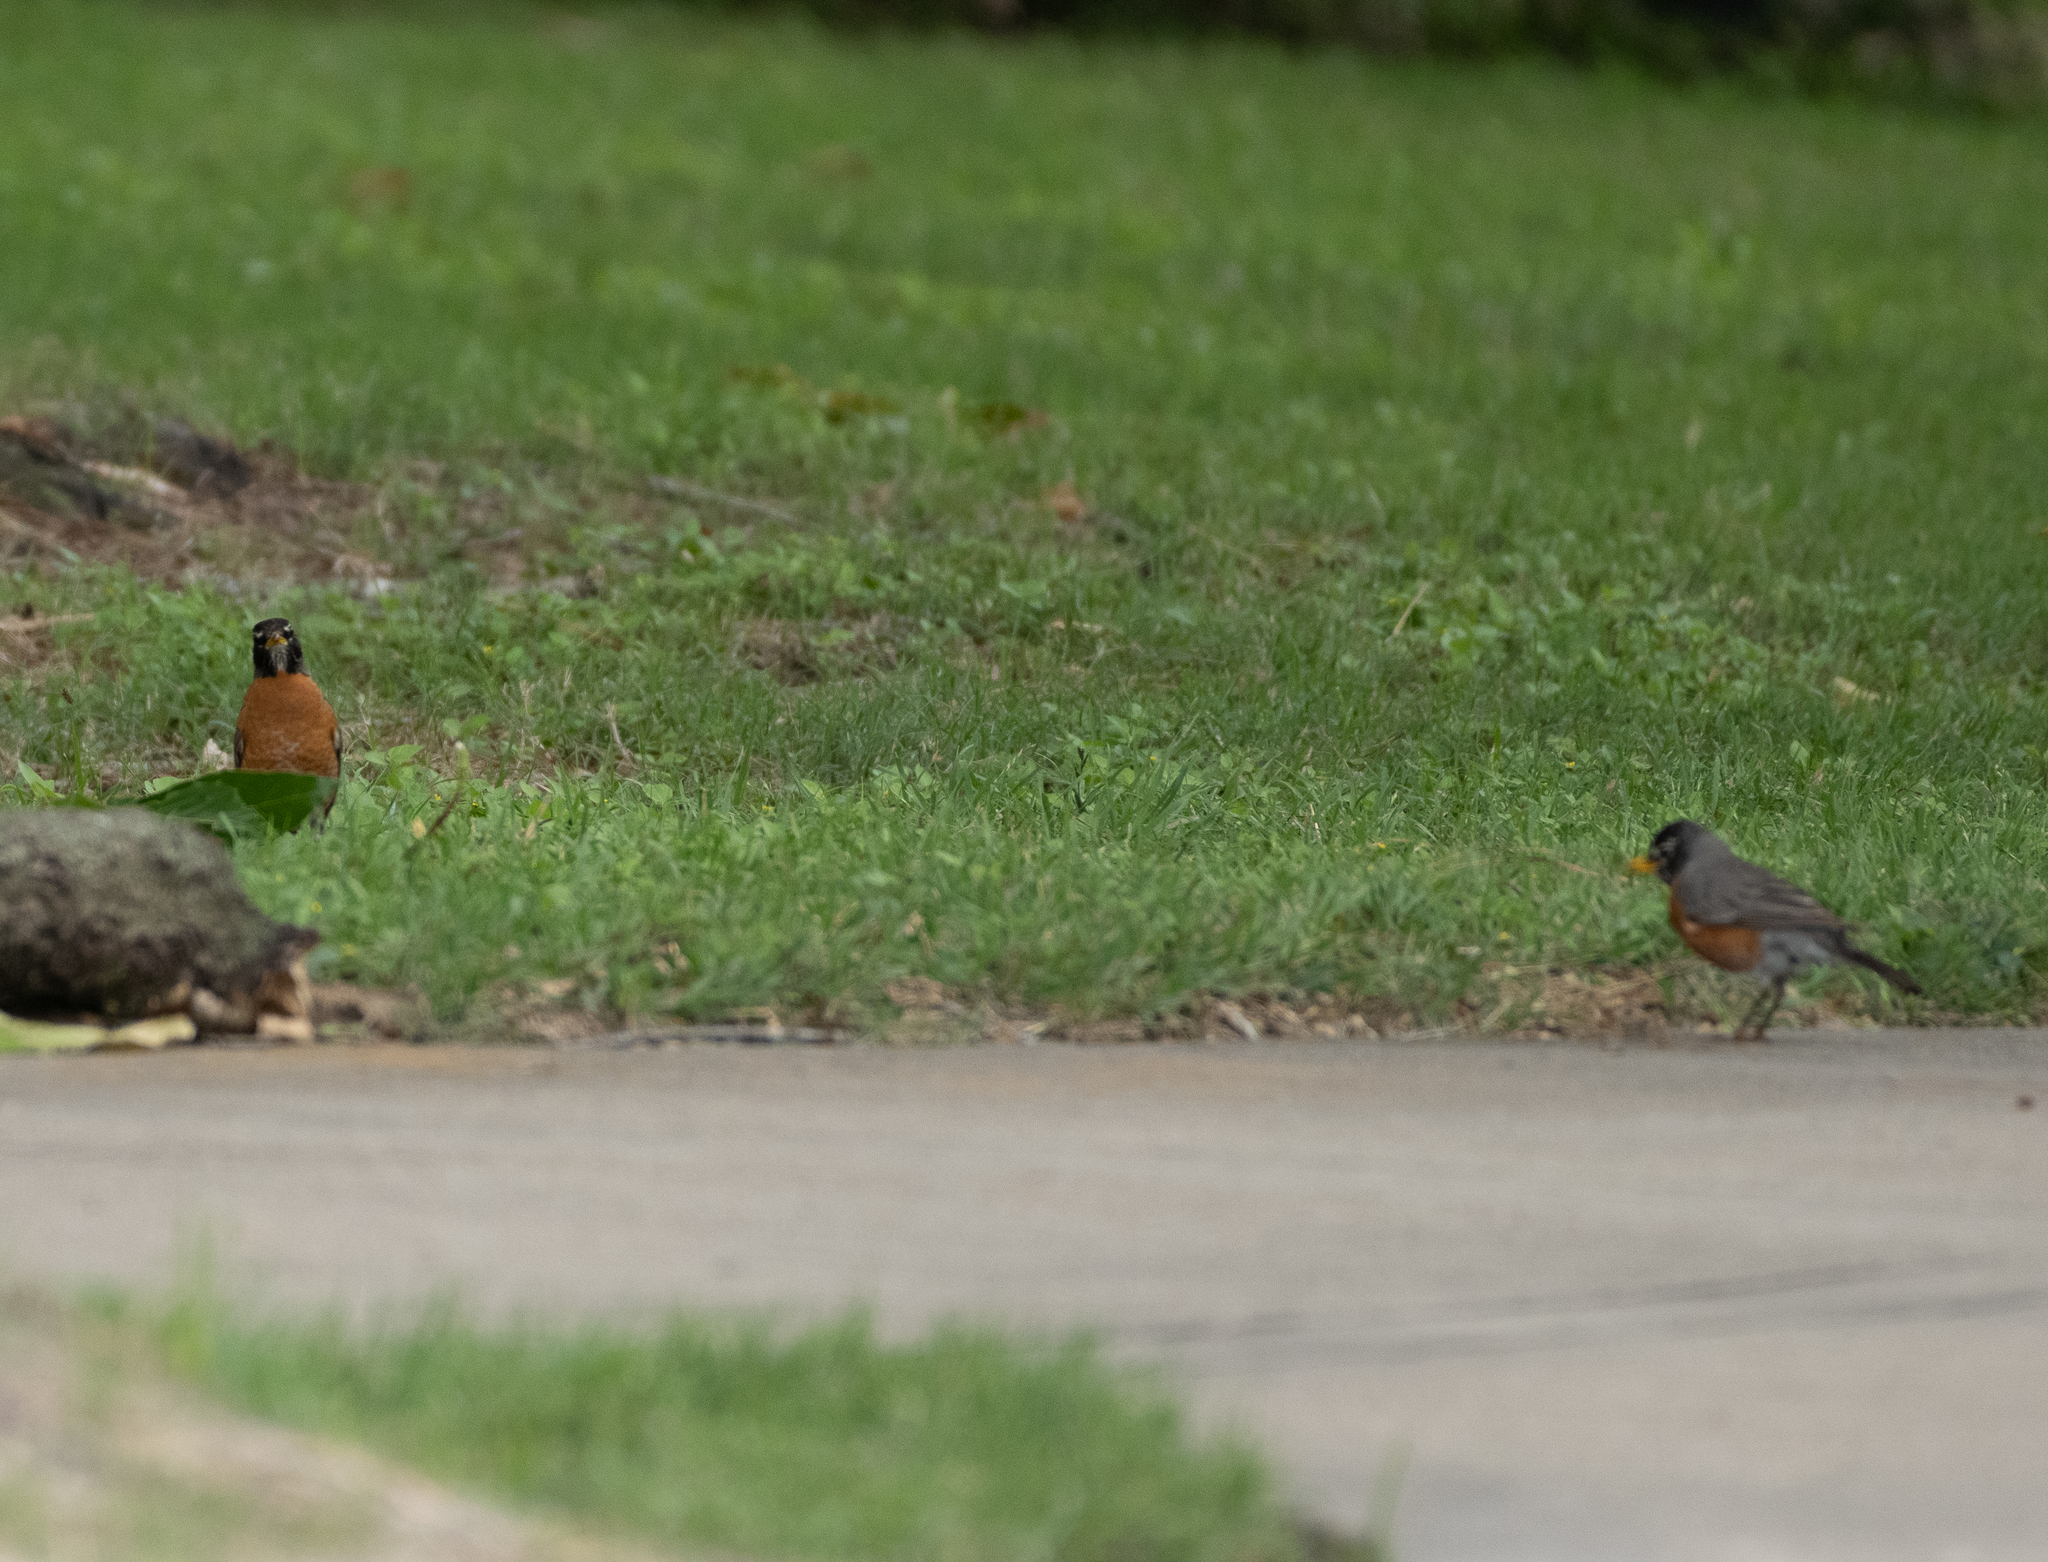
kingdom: Animalia
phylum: Chordata
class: Aves
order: Passeriformes
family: Turdidae
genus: Turdus
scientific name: Turdus migratorius
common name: American robin
